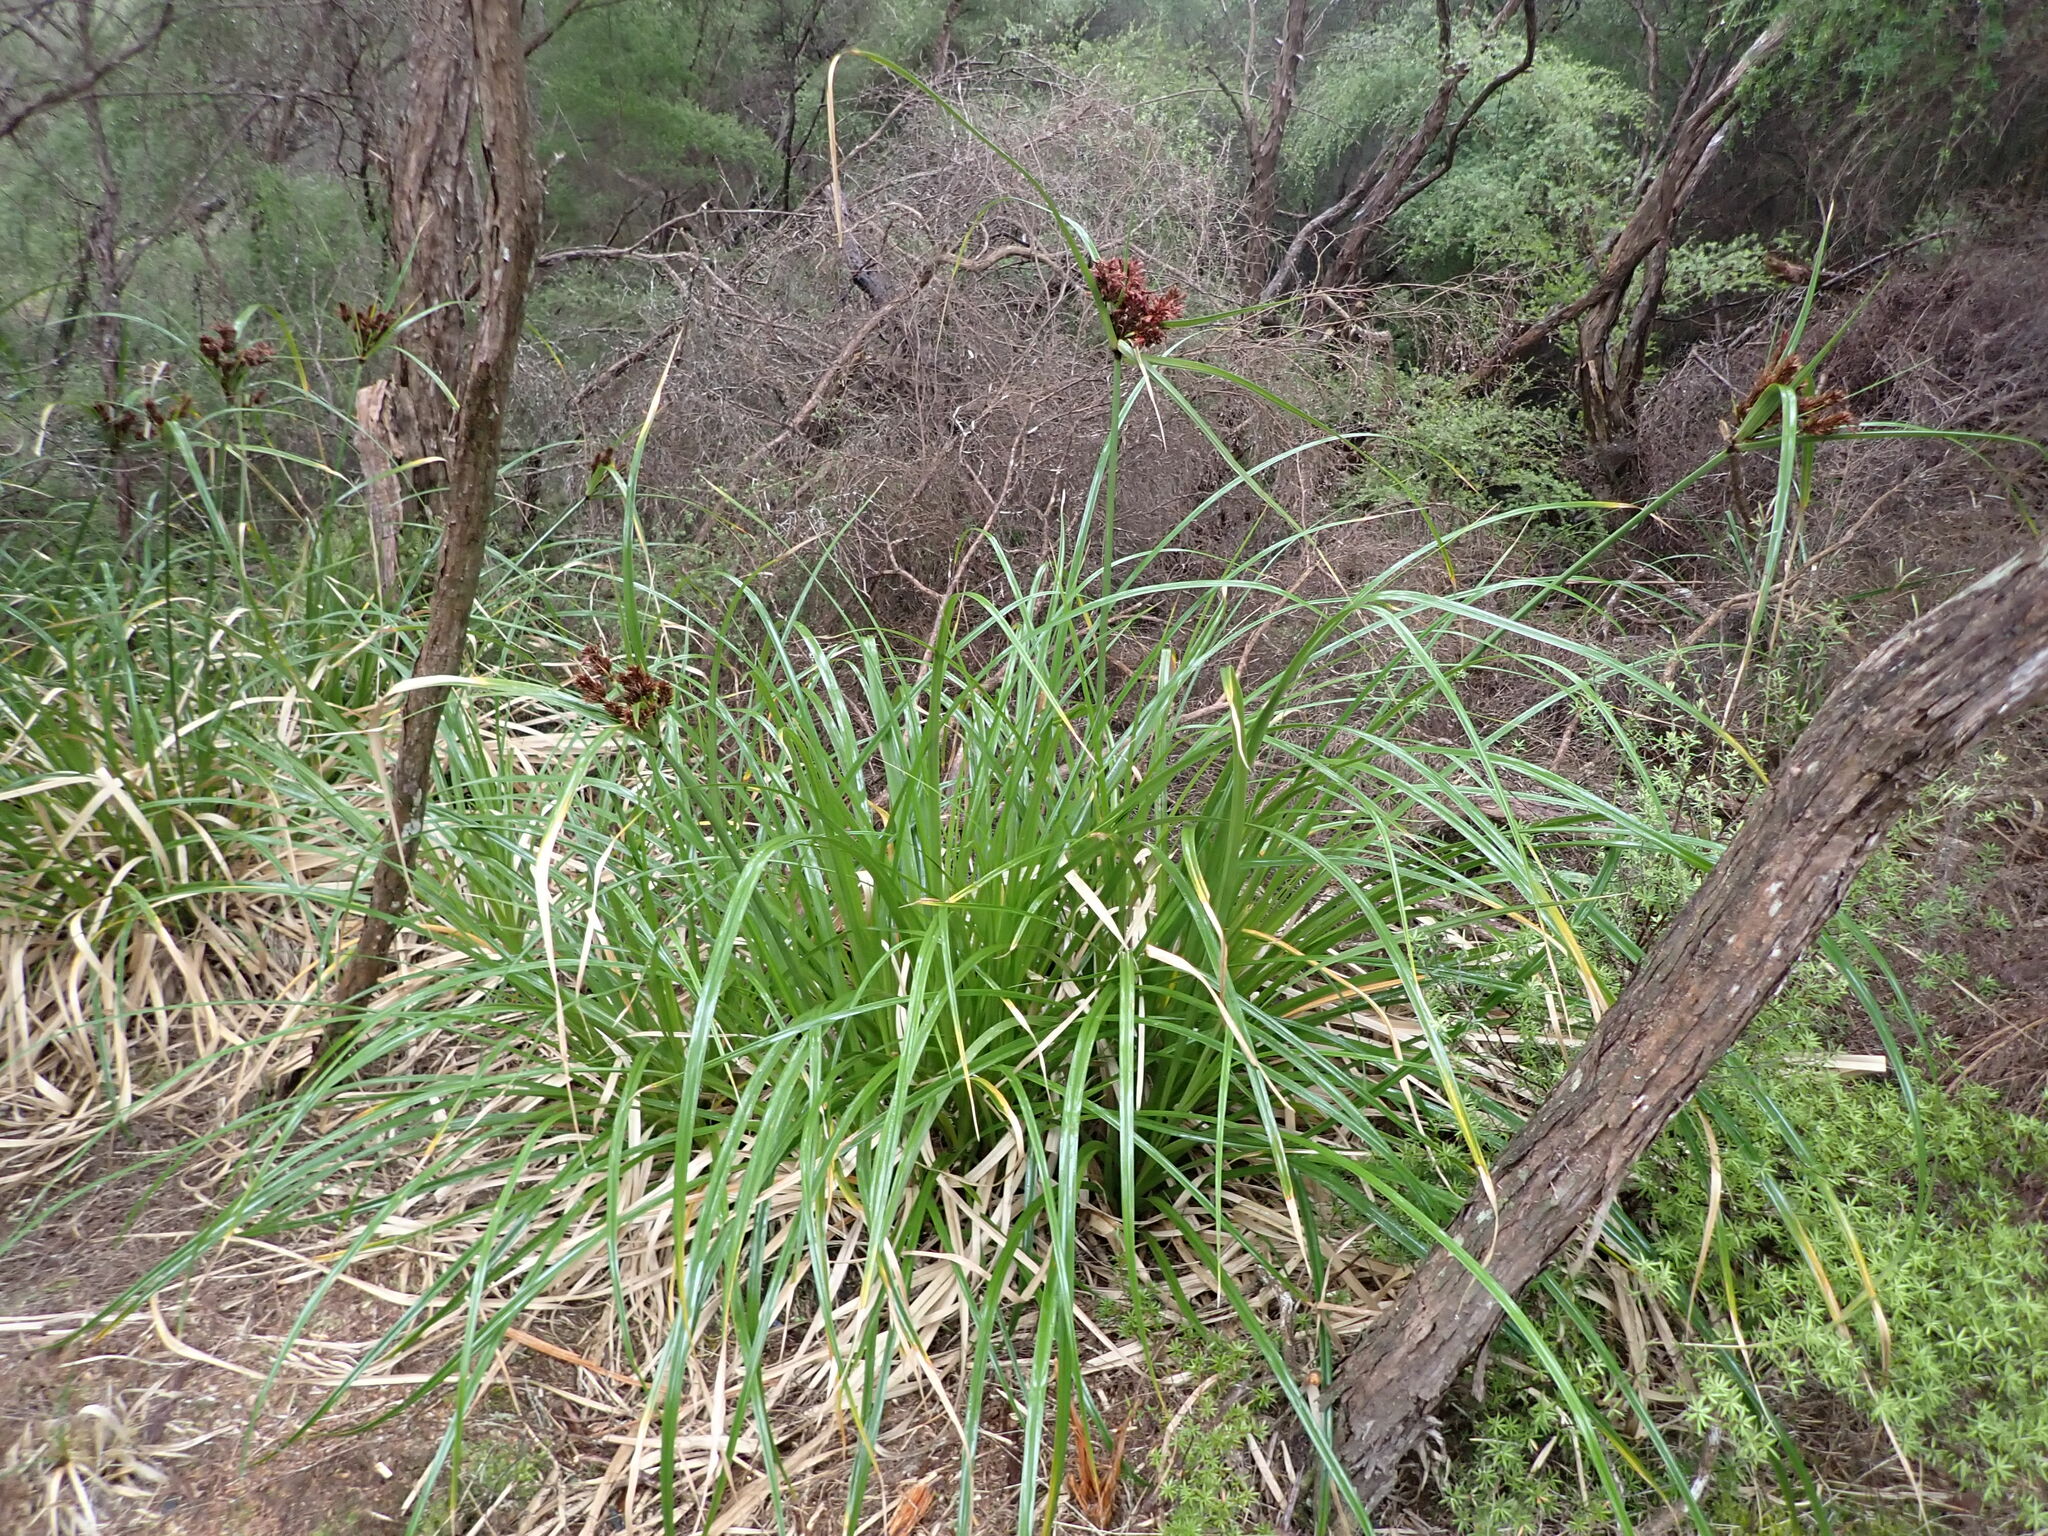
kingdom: Plantae
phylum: Tracheophyta
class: Liliopsida
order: Poales
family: Cyperaceae
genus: Cyperus
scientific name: Cyperus ustulatus
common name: Giant umbrella-sedge
